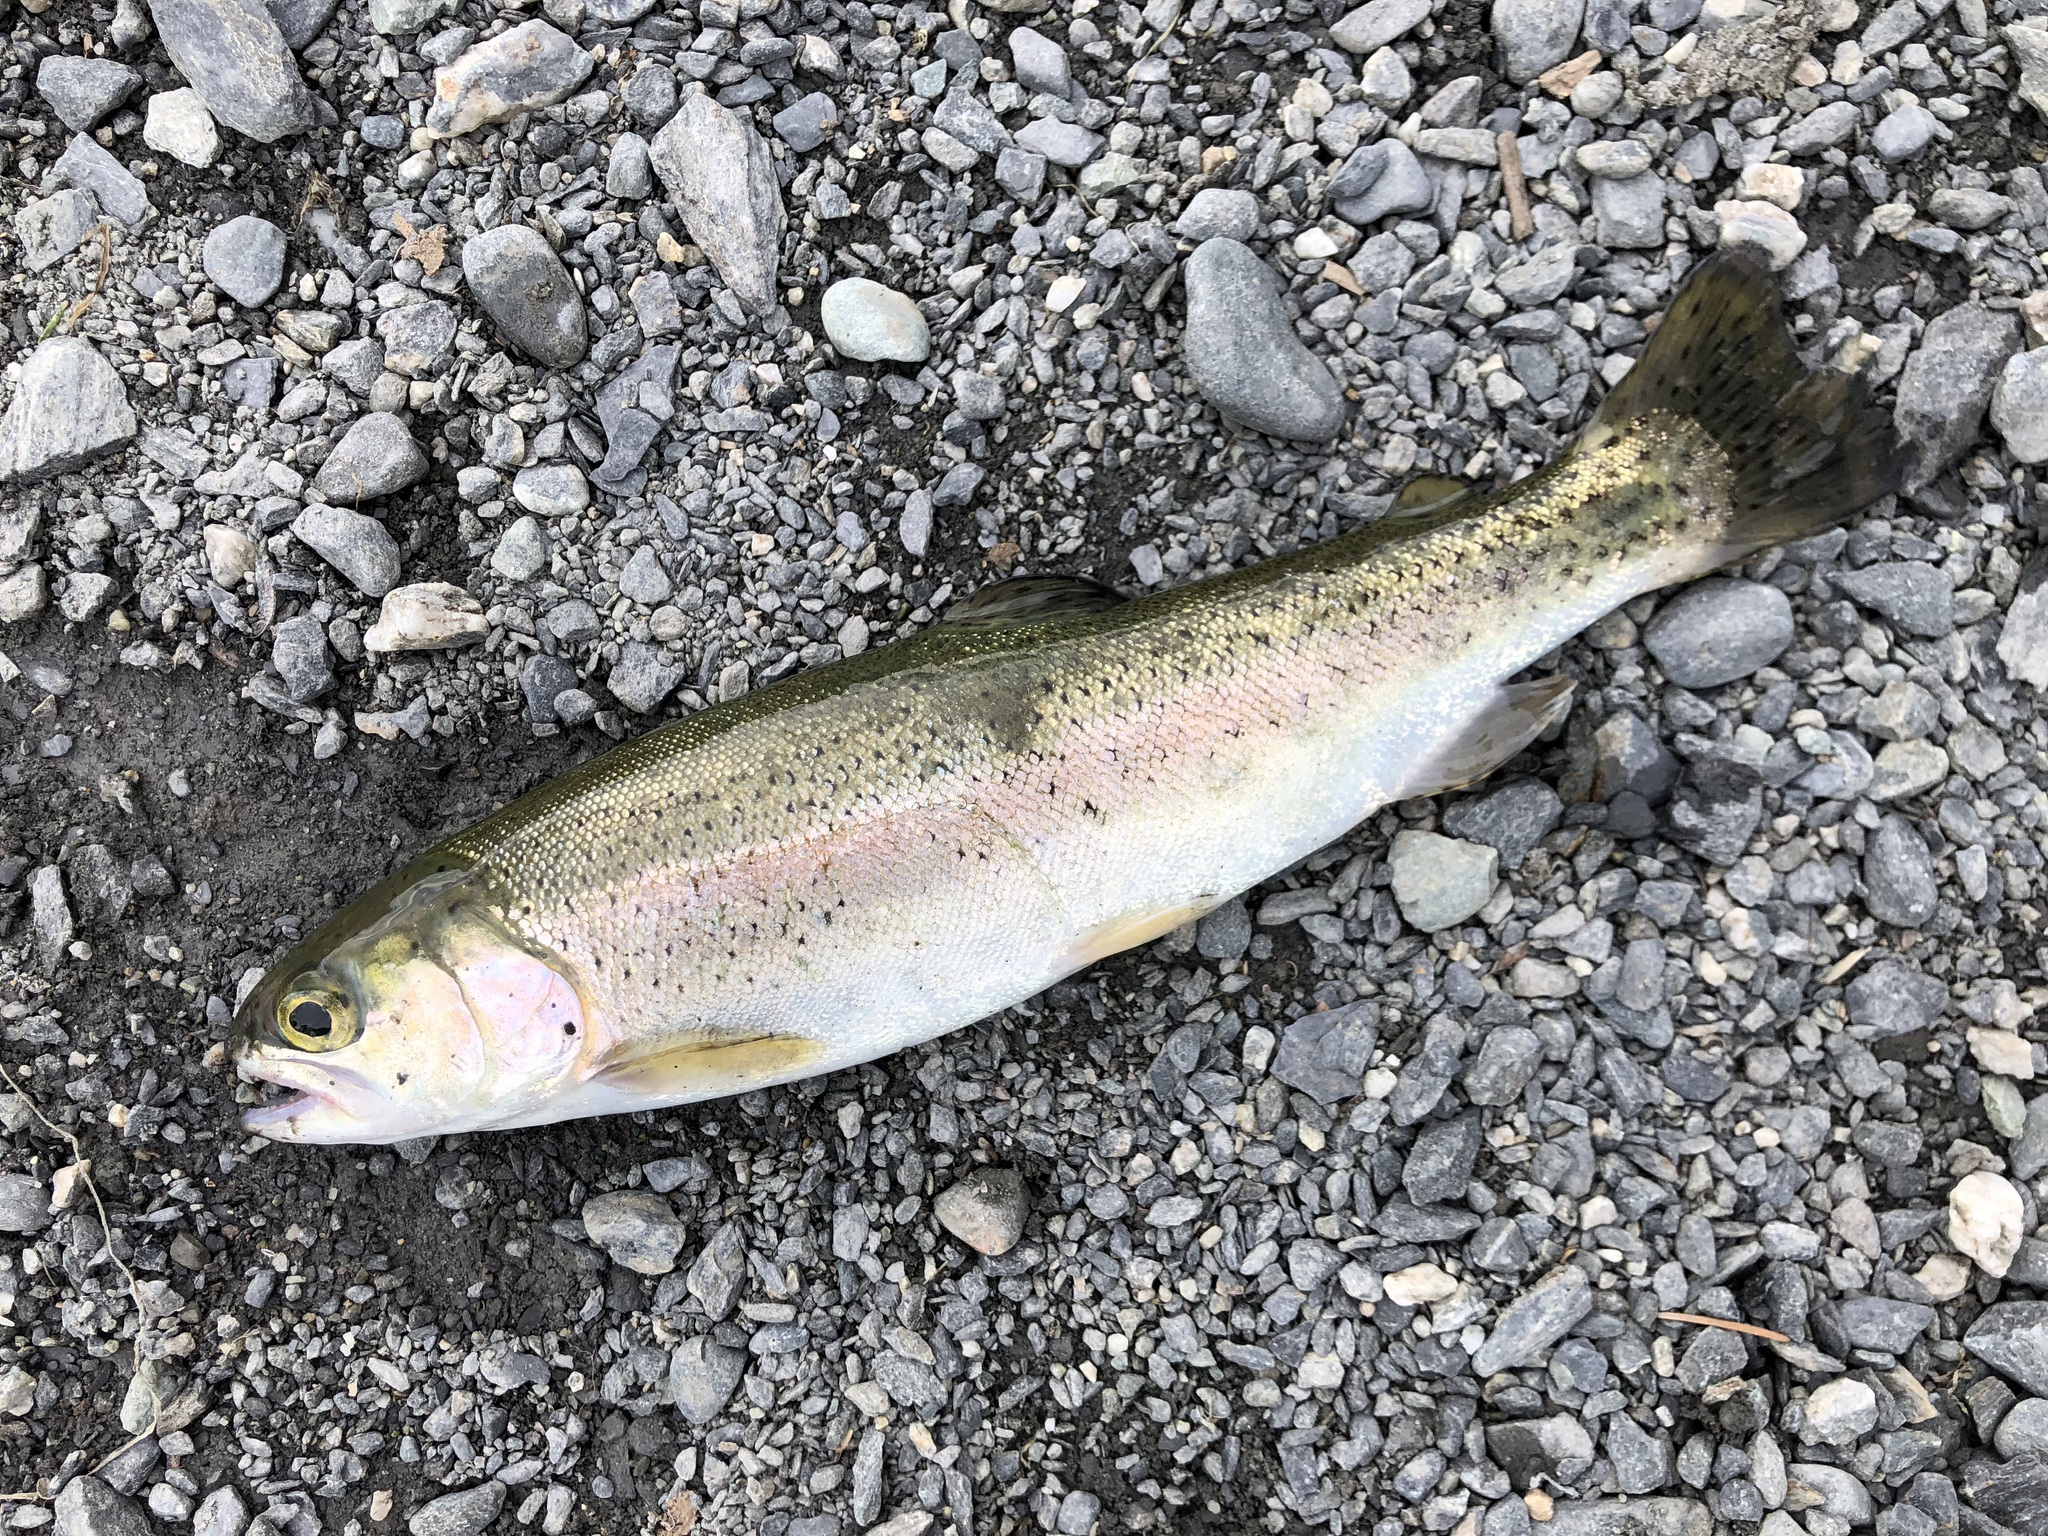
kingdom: Animalia
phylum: Chordata
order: Salmoniformes
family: Salmonidae
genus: Oncorhynchus
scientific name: Oncorhynchus mykiss
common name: Rainbow trout
